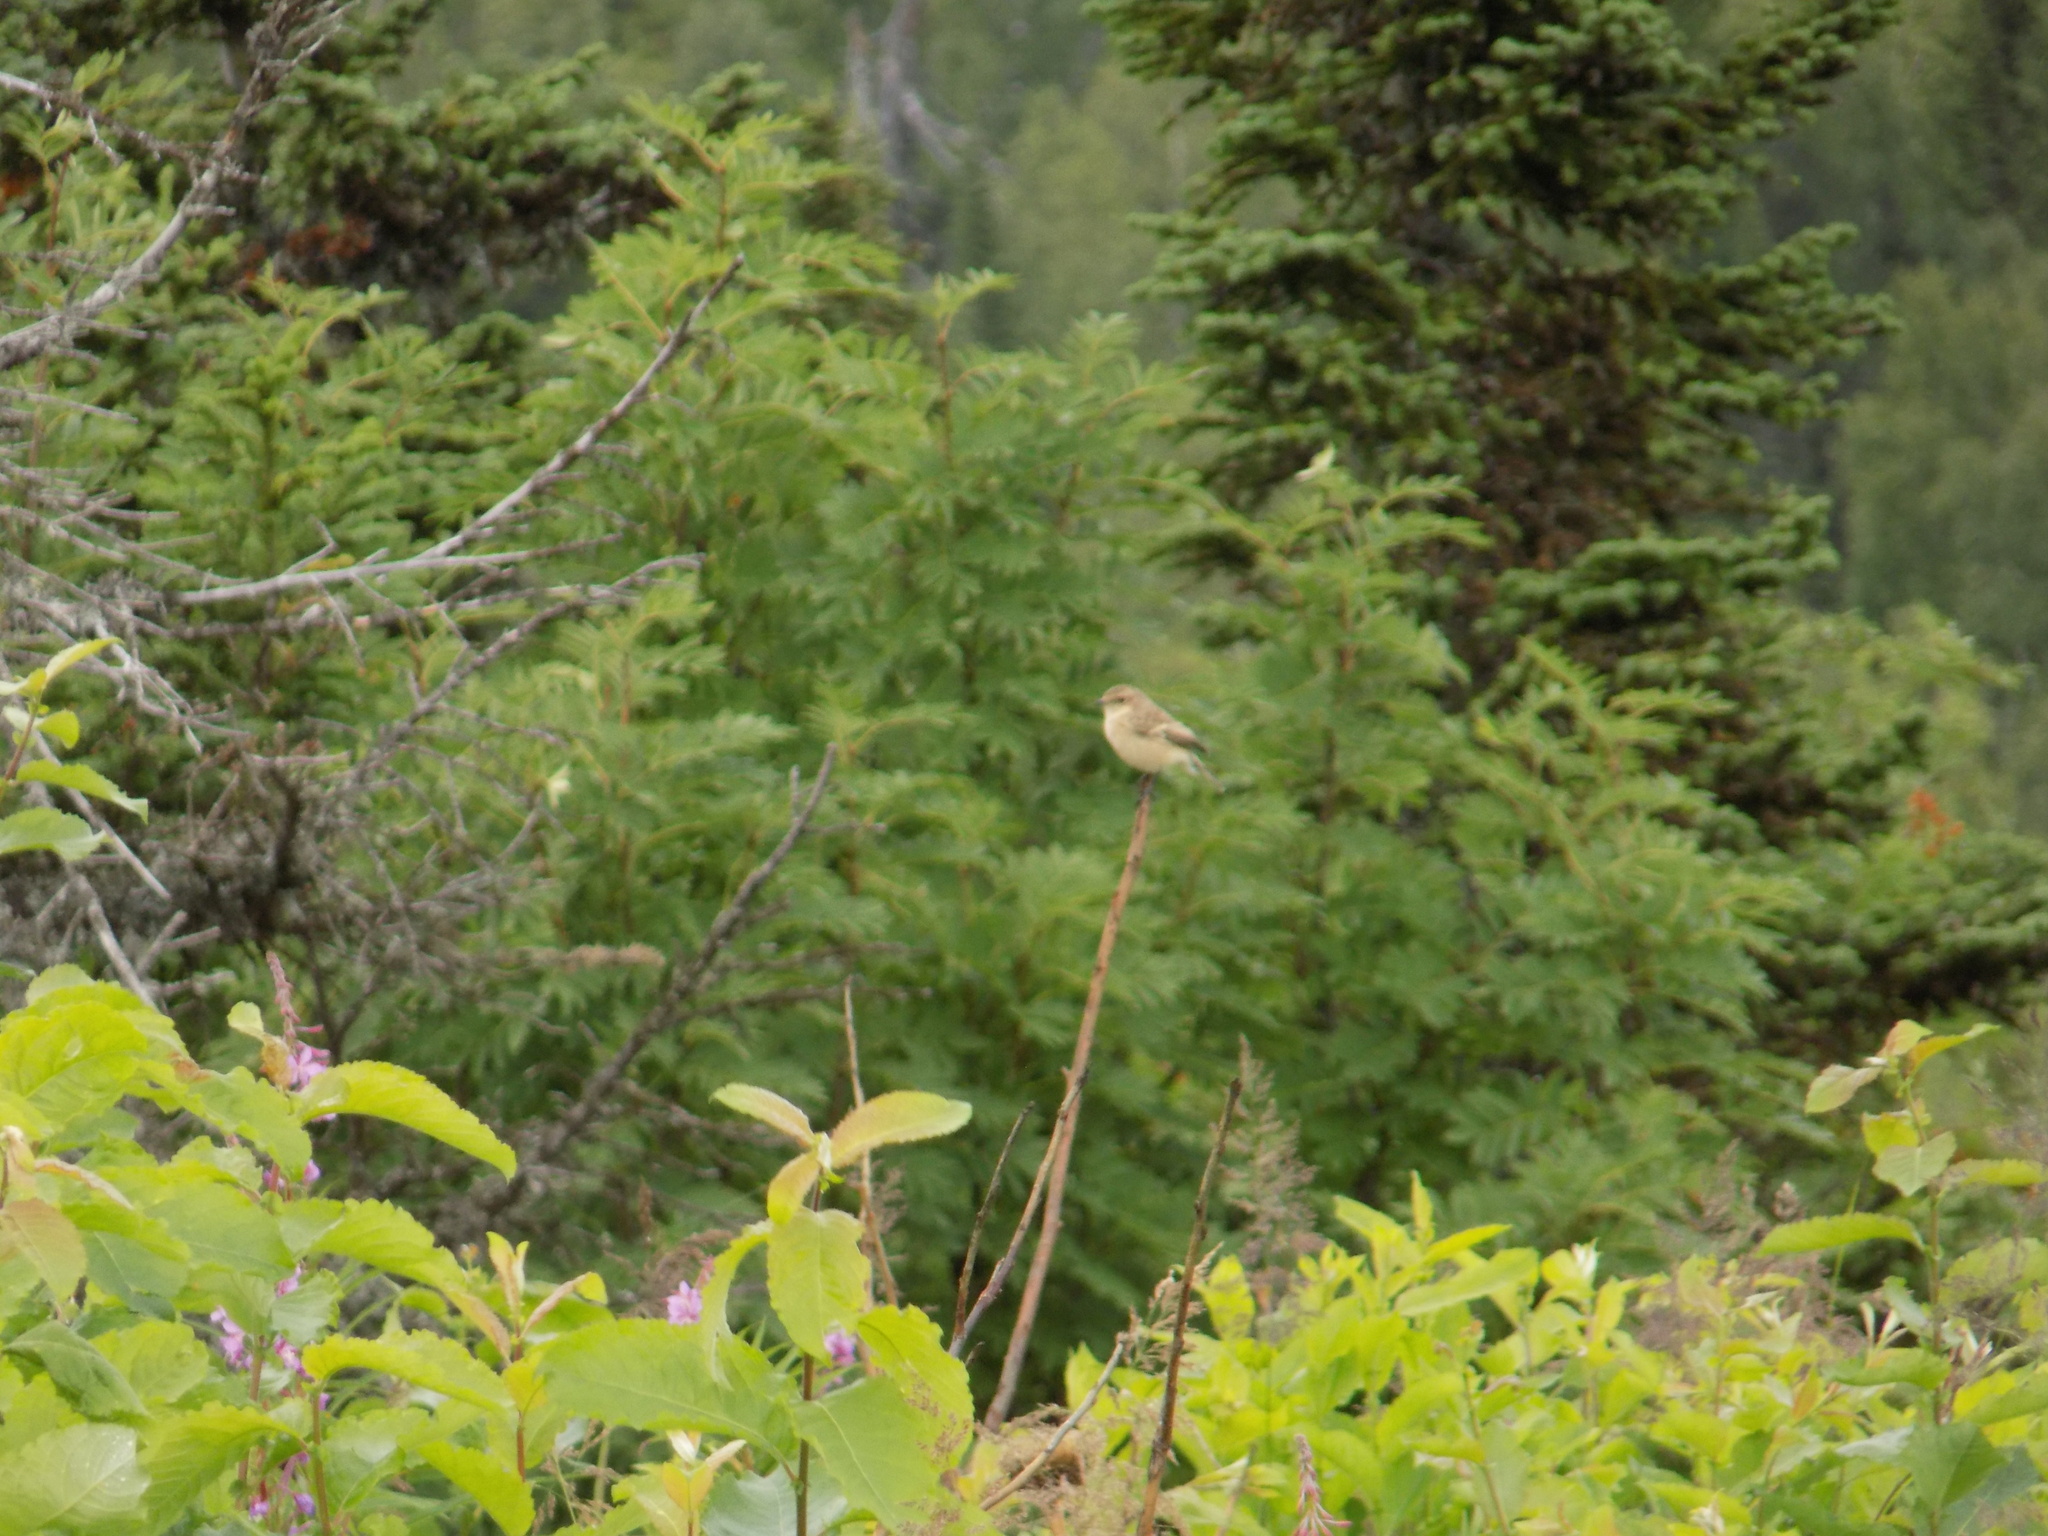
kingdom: Animalia
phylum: Chordata
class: Aves
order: Passeriformes
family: Muscicapidae
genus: Saxicola
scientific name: Saxicola maurus
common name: Siberian stonechat
